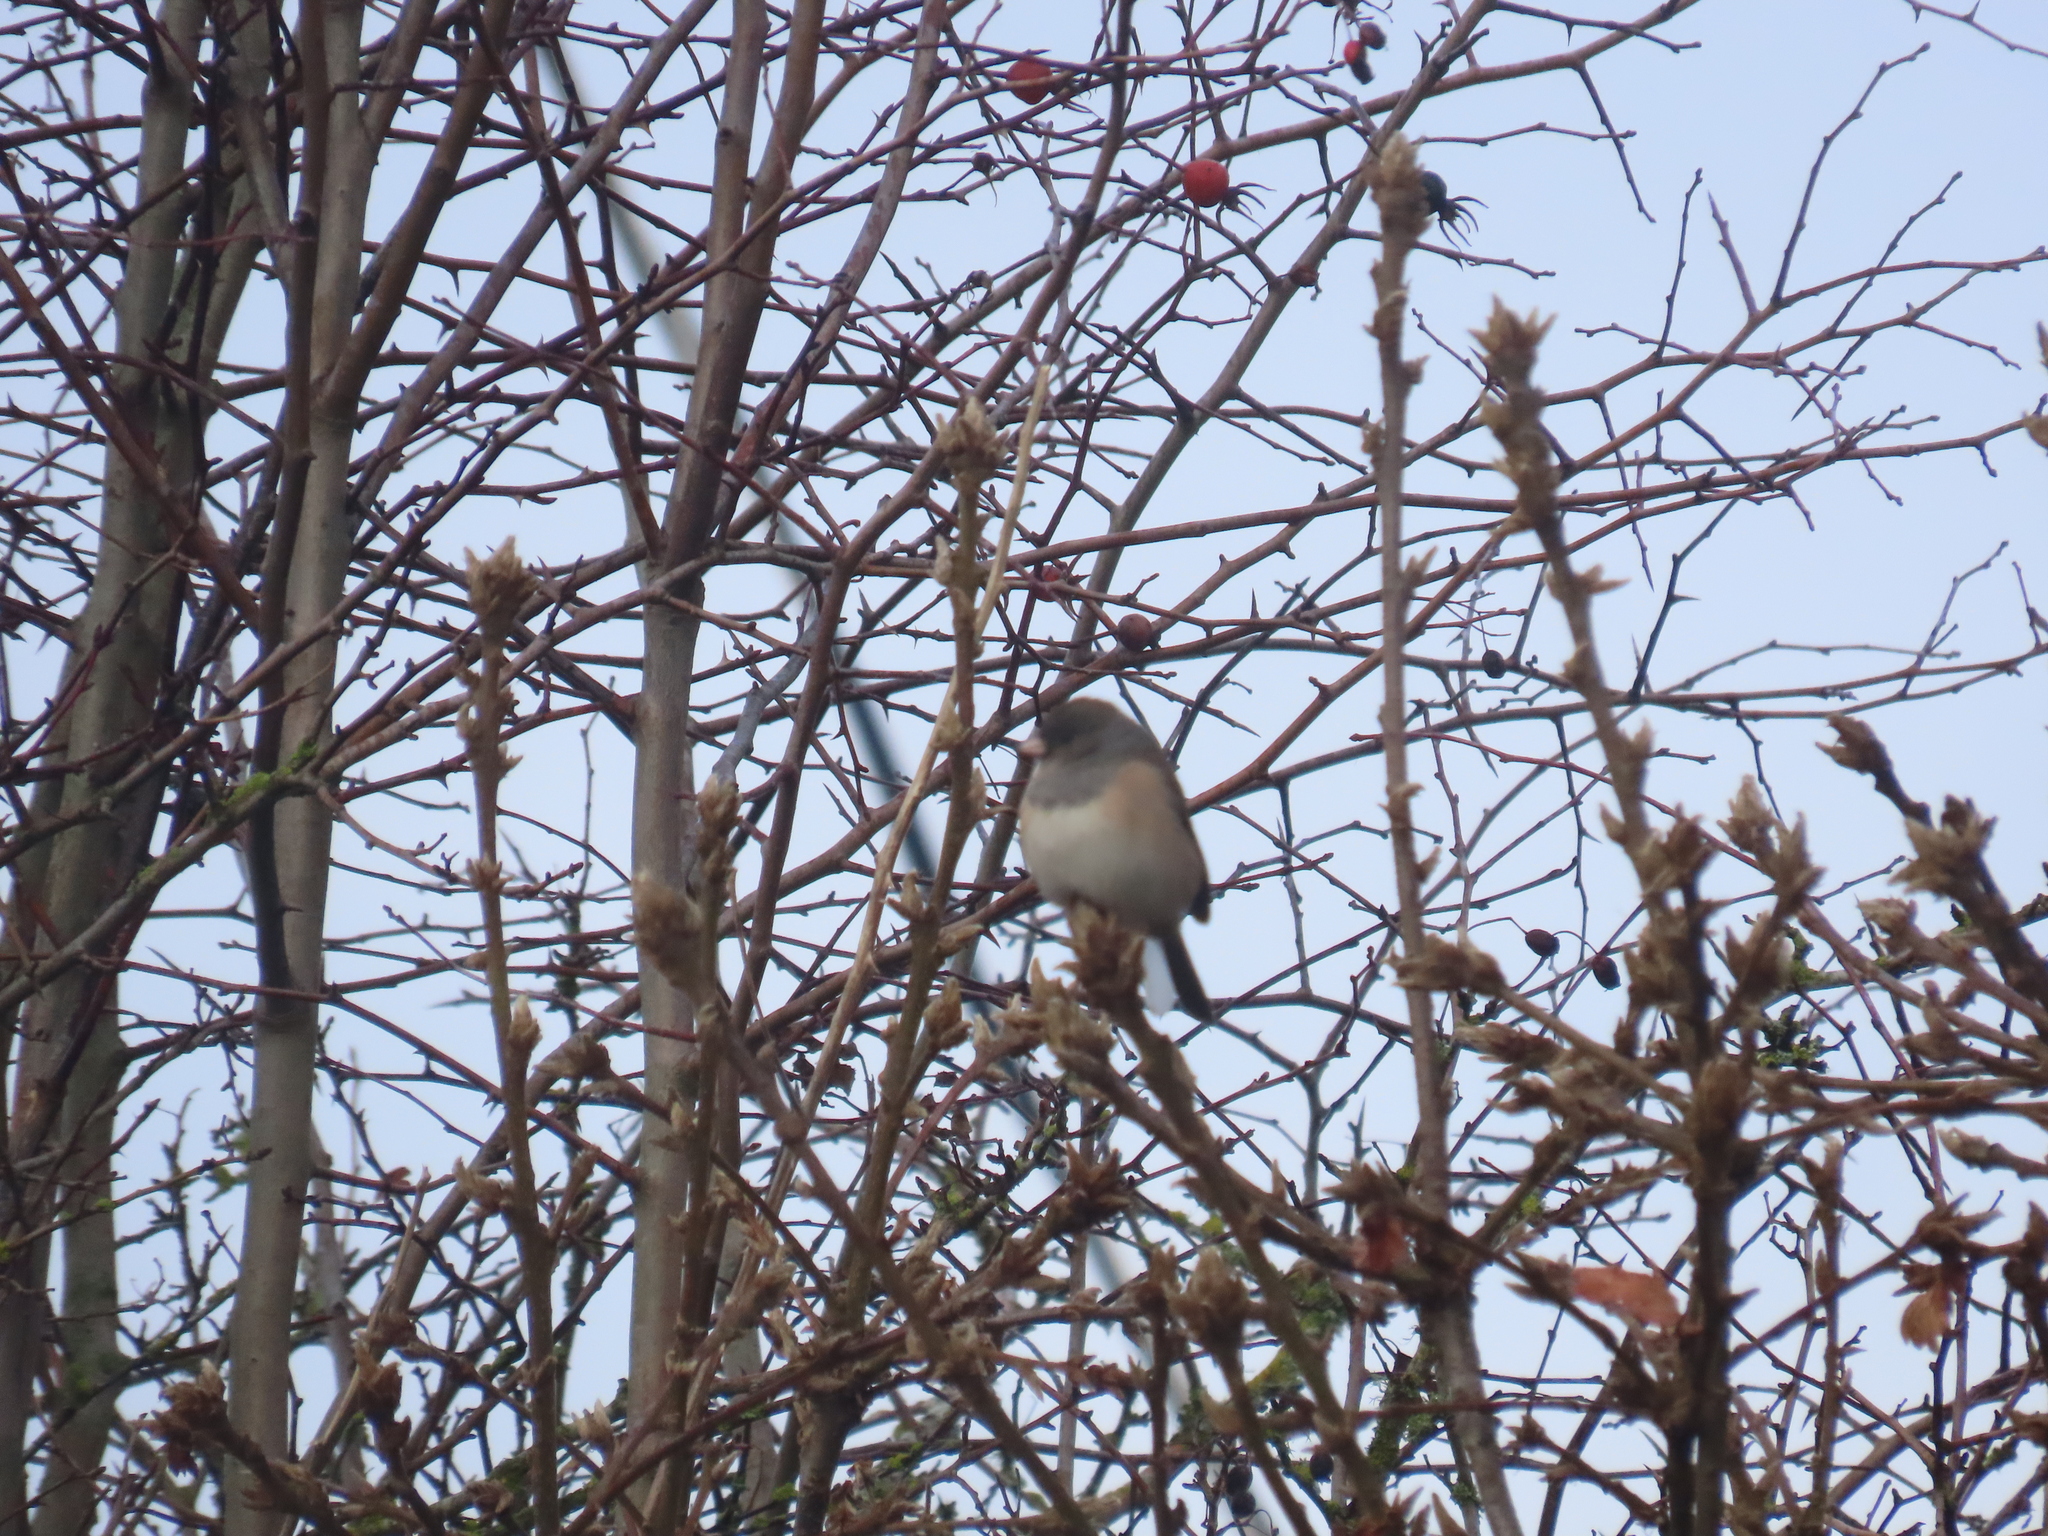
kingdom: Animalia
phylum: Chordata
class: Aves
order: Passeriformes
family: Passerellidae
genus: Junco
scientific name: Junco hyemalis
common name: Dark-eyed junco
